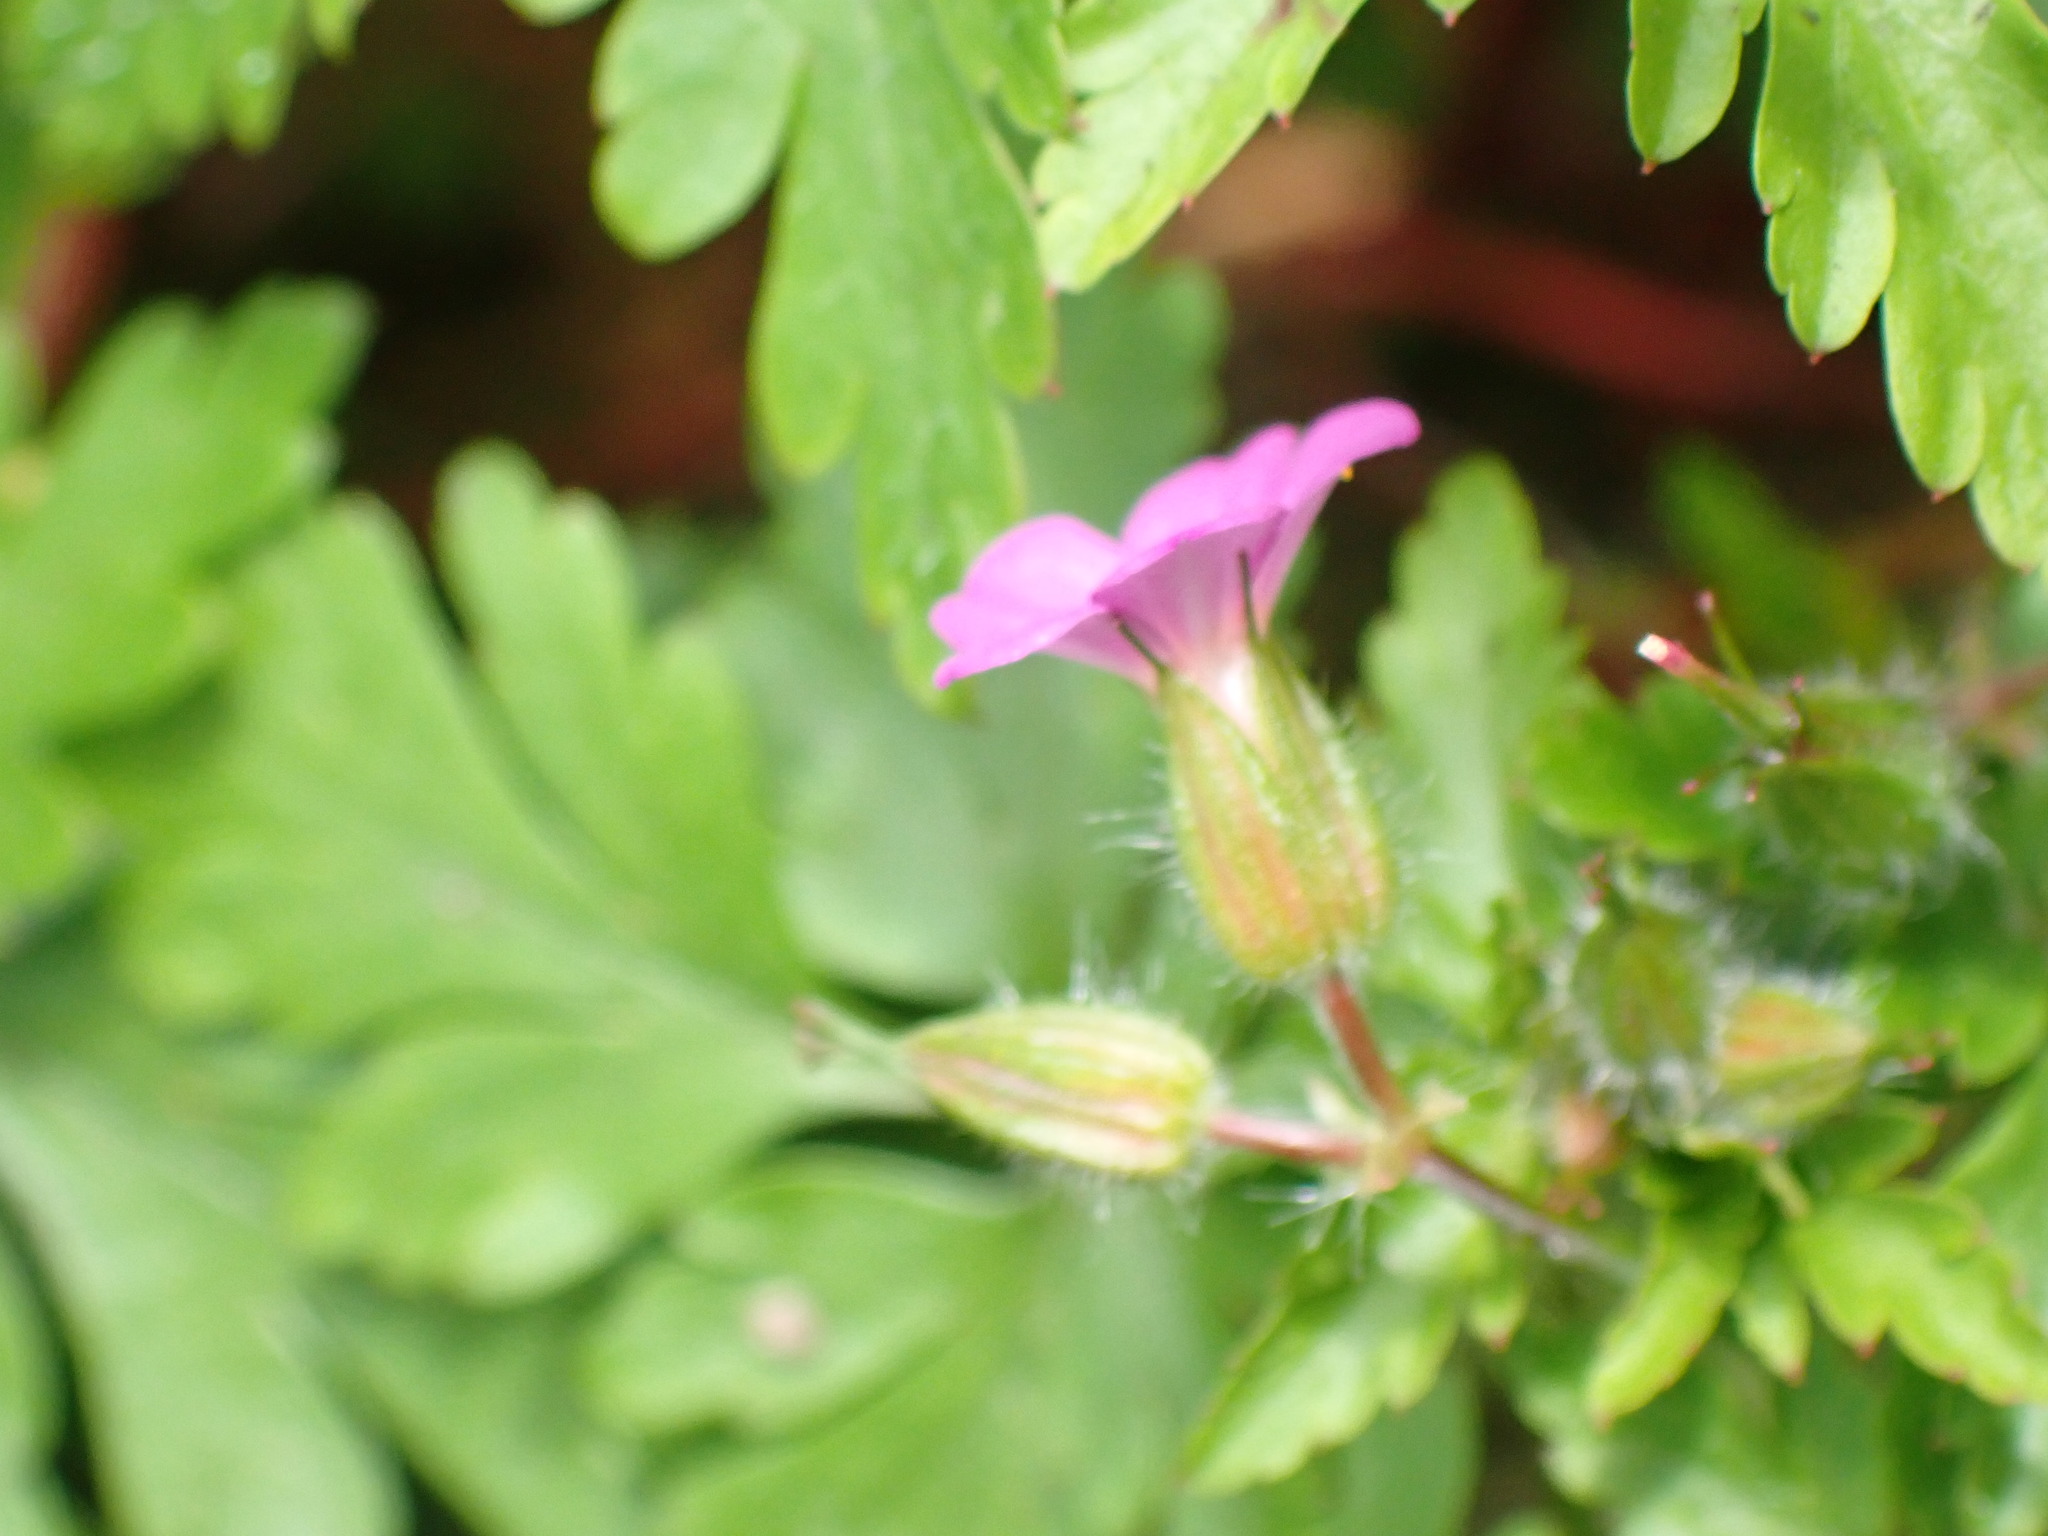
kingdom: Plantae
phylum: Tracheophyta
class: Magnoliopsida
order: Geraniales
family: Geraniaceae
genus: Geranium
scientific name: Geranium purpureum
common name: Little-robin
